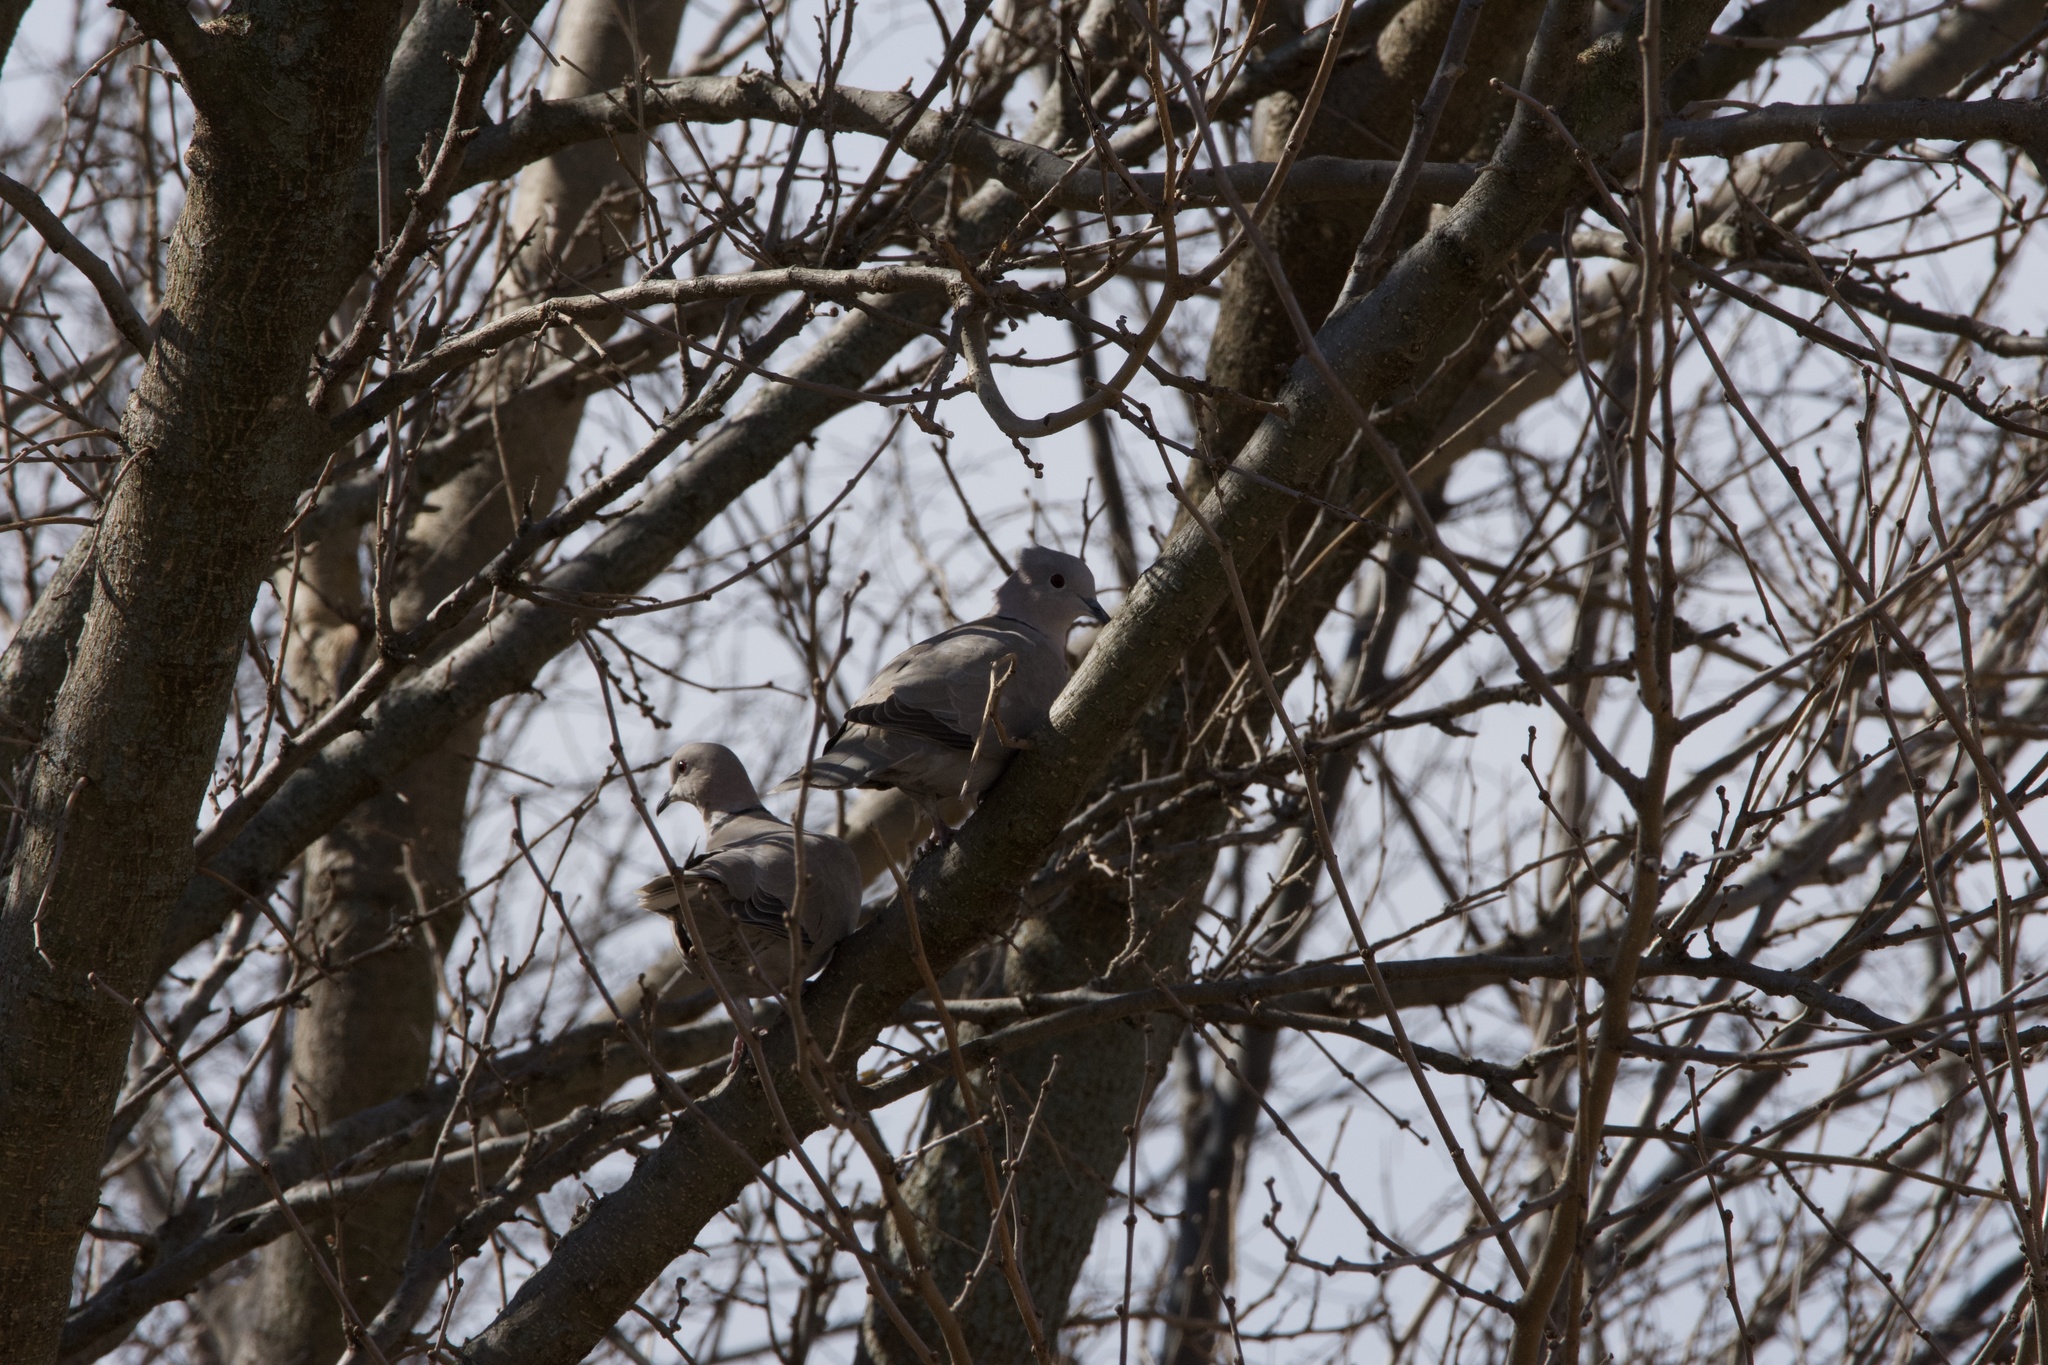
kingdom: Animalia
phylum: Chordata
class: Aves
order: Columbiformes
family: Columbidae
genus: Streptopelia
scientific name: Streptopelia decaocto
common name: Eurasian collared dove
